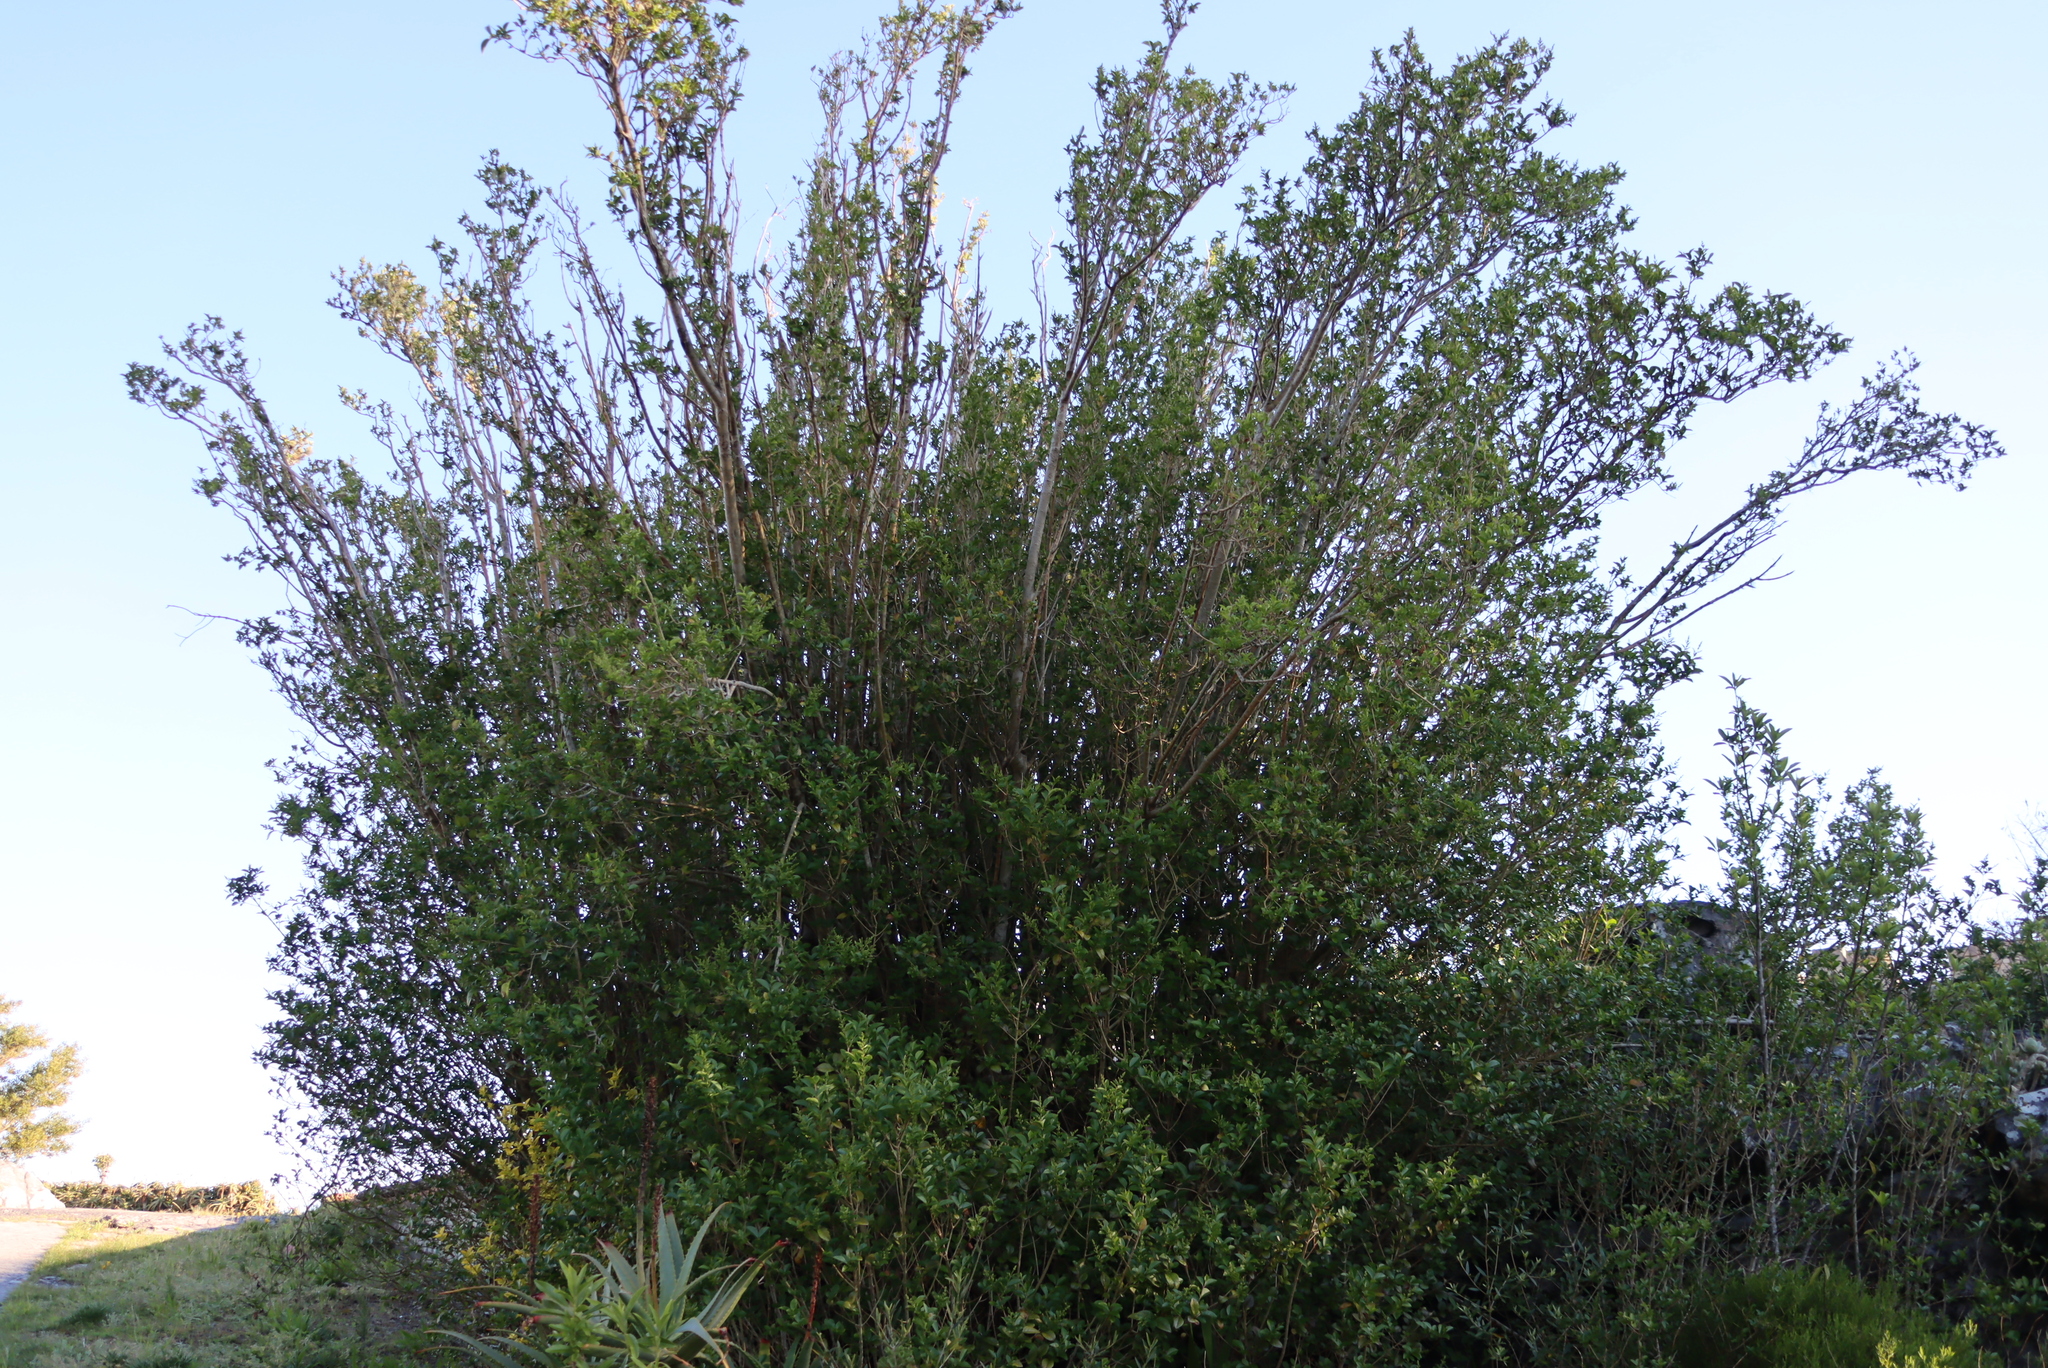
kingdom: Plantae
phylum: Tracheophyta
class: Magnoliopsida
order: Lamiales
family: Oleaceae
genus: Ligustrum
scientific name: Ligustrum ovalifolium
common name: California privet
